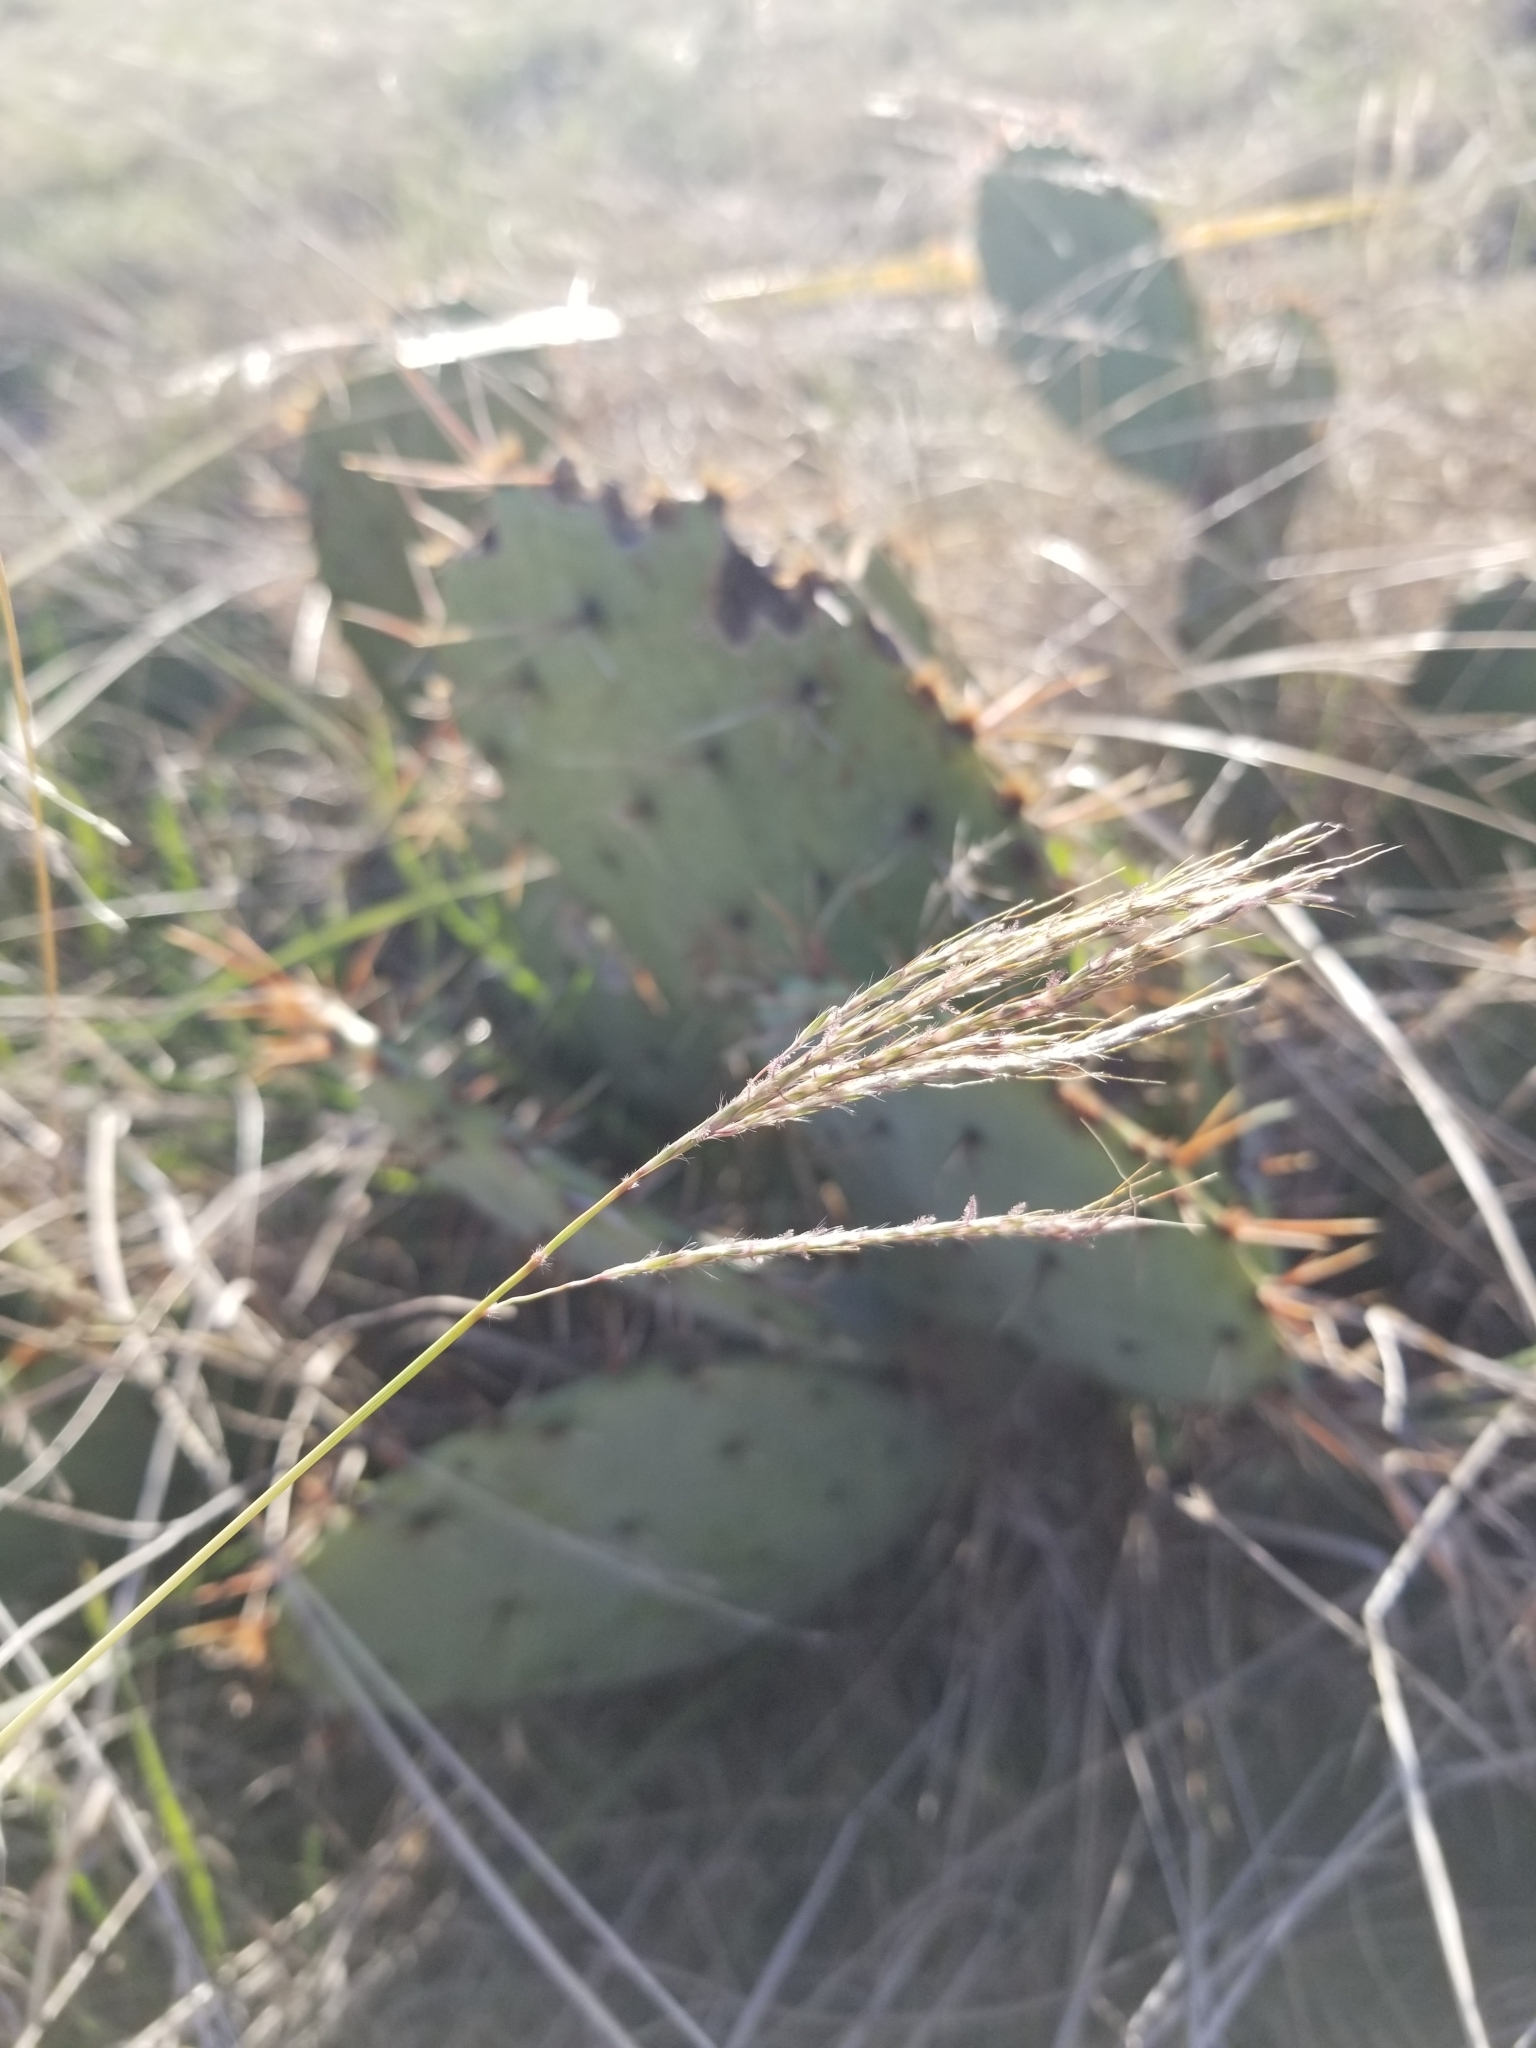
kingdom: Plantae
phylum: Tracheophyta
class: Liliopsida
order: Poales
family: Poaceae
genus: Bothriochloa
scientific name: Bothriochloa ischaemum
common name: Yellow bluestem
